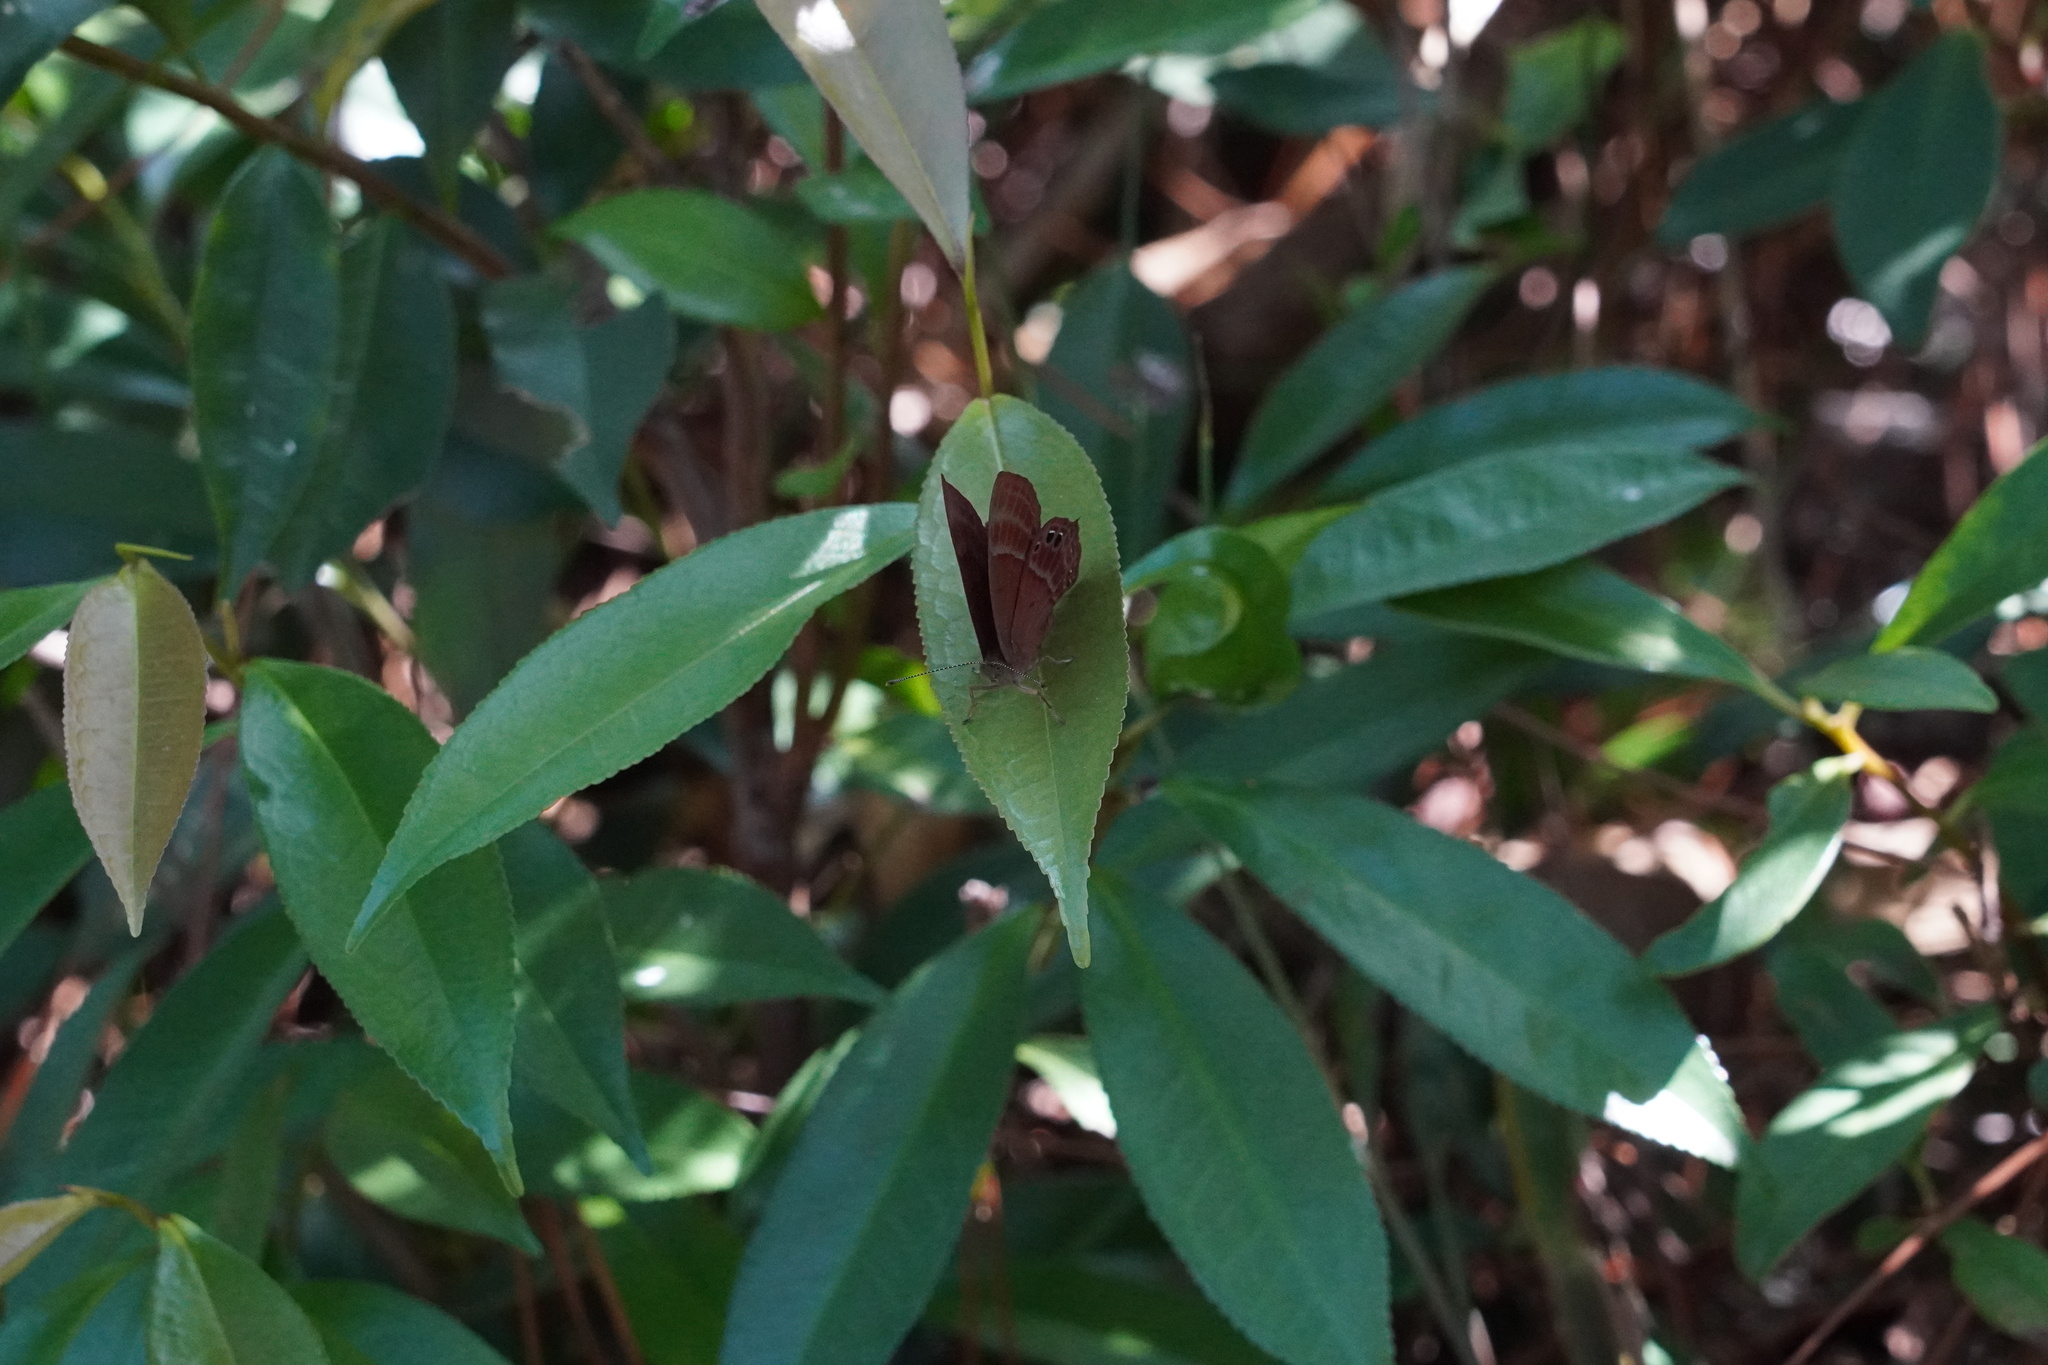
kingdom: Animalia
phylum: Arthropoda
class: Insecta
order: Lepidoptera
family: Lycaenidae
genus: Abisara
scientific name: Abisara echeria
